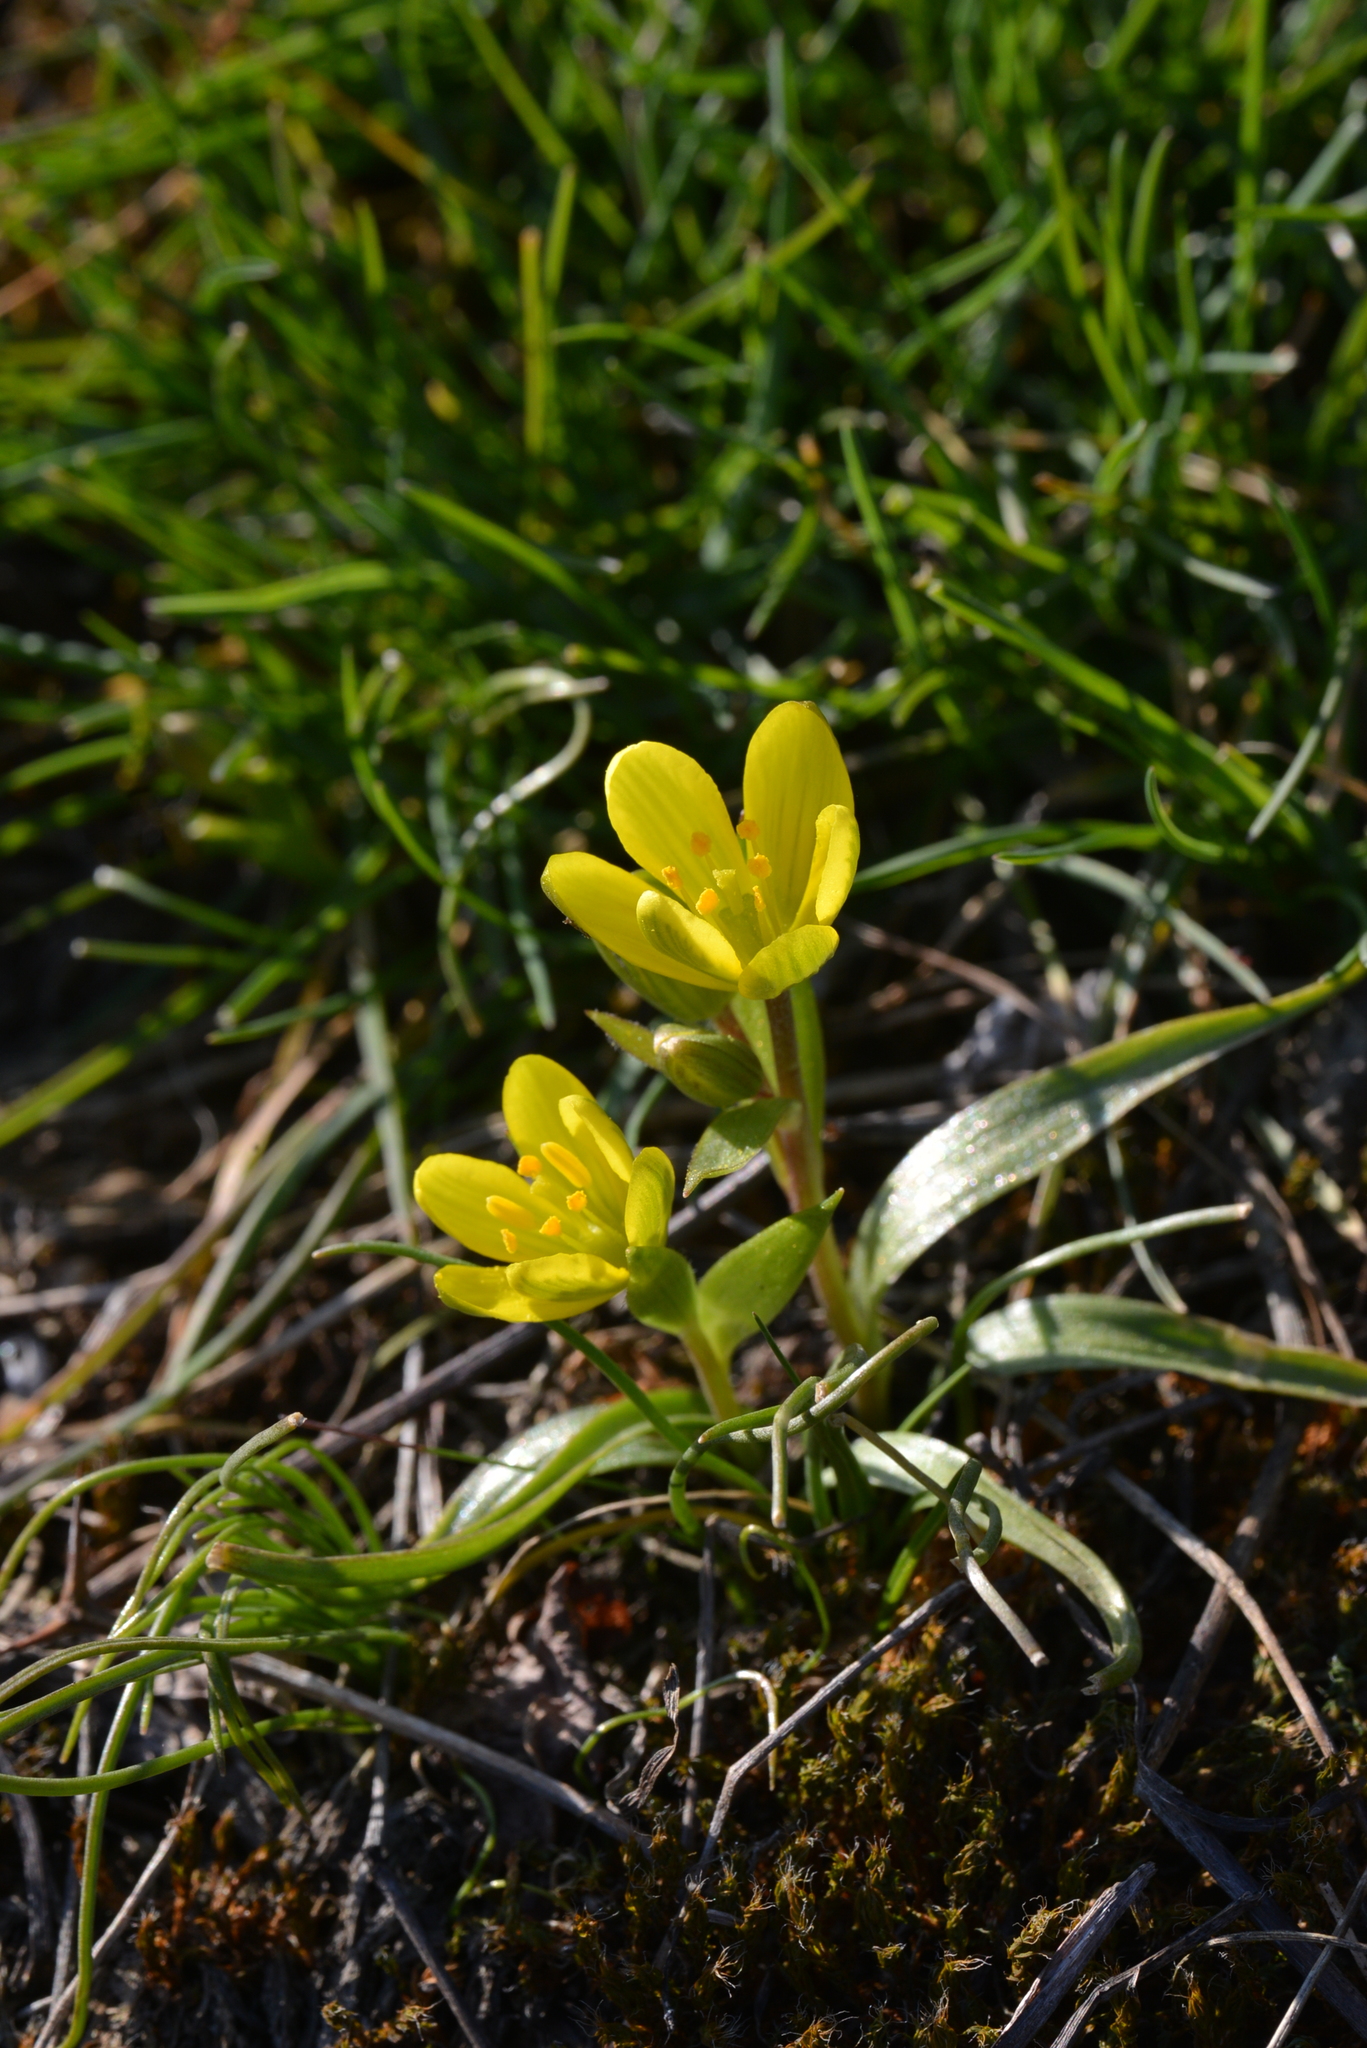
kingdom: Plantae
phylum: Tracheophyta
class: Liliopsida
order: Liliales
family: Liliaceae
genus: Gagea
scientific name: Gagea bohemica
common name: Early star-of-bethlehem
